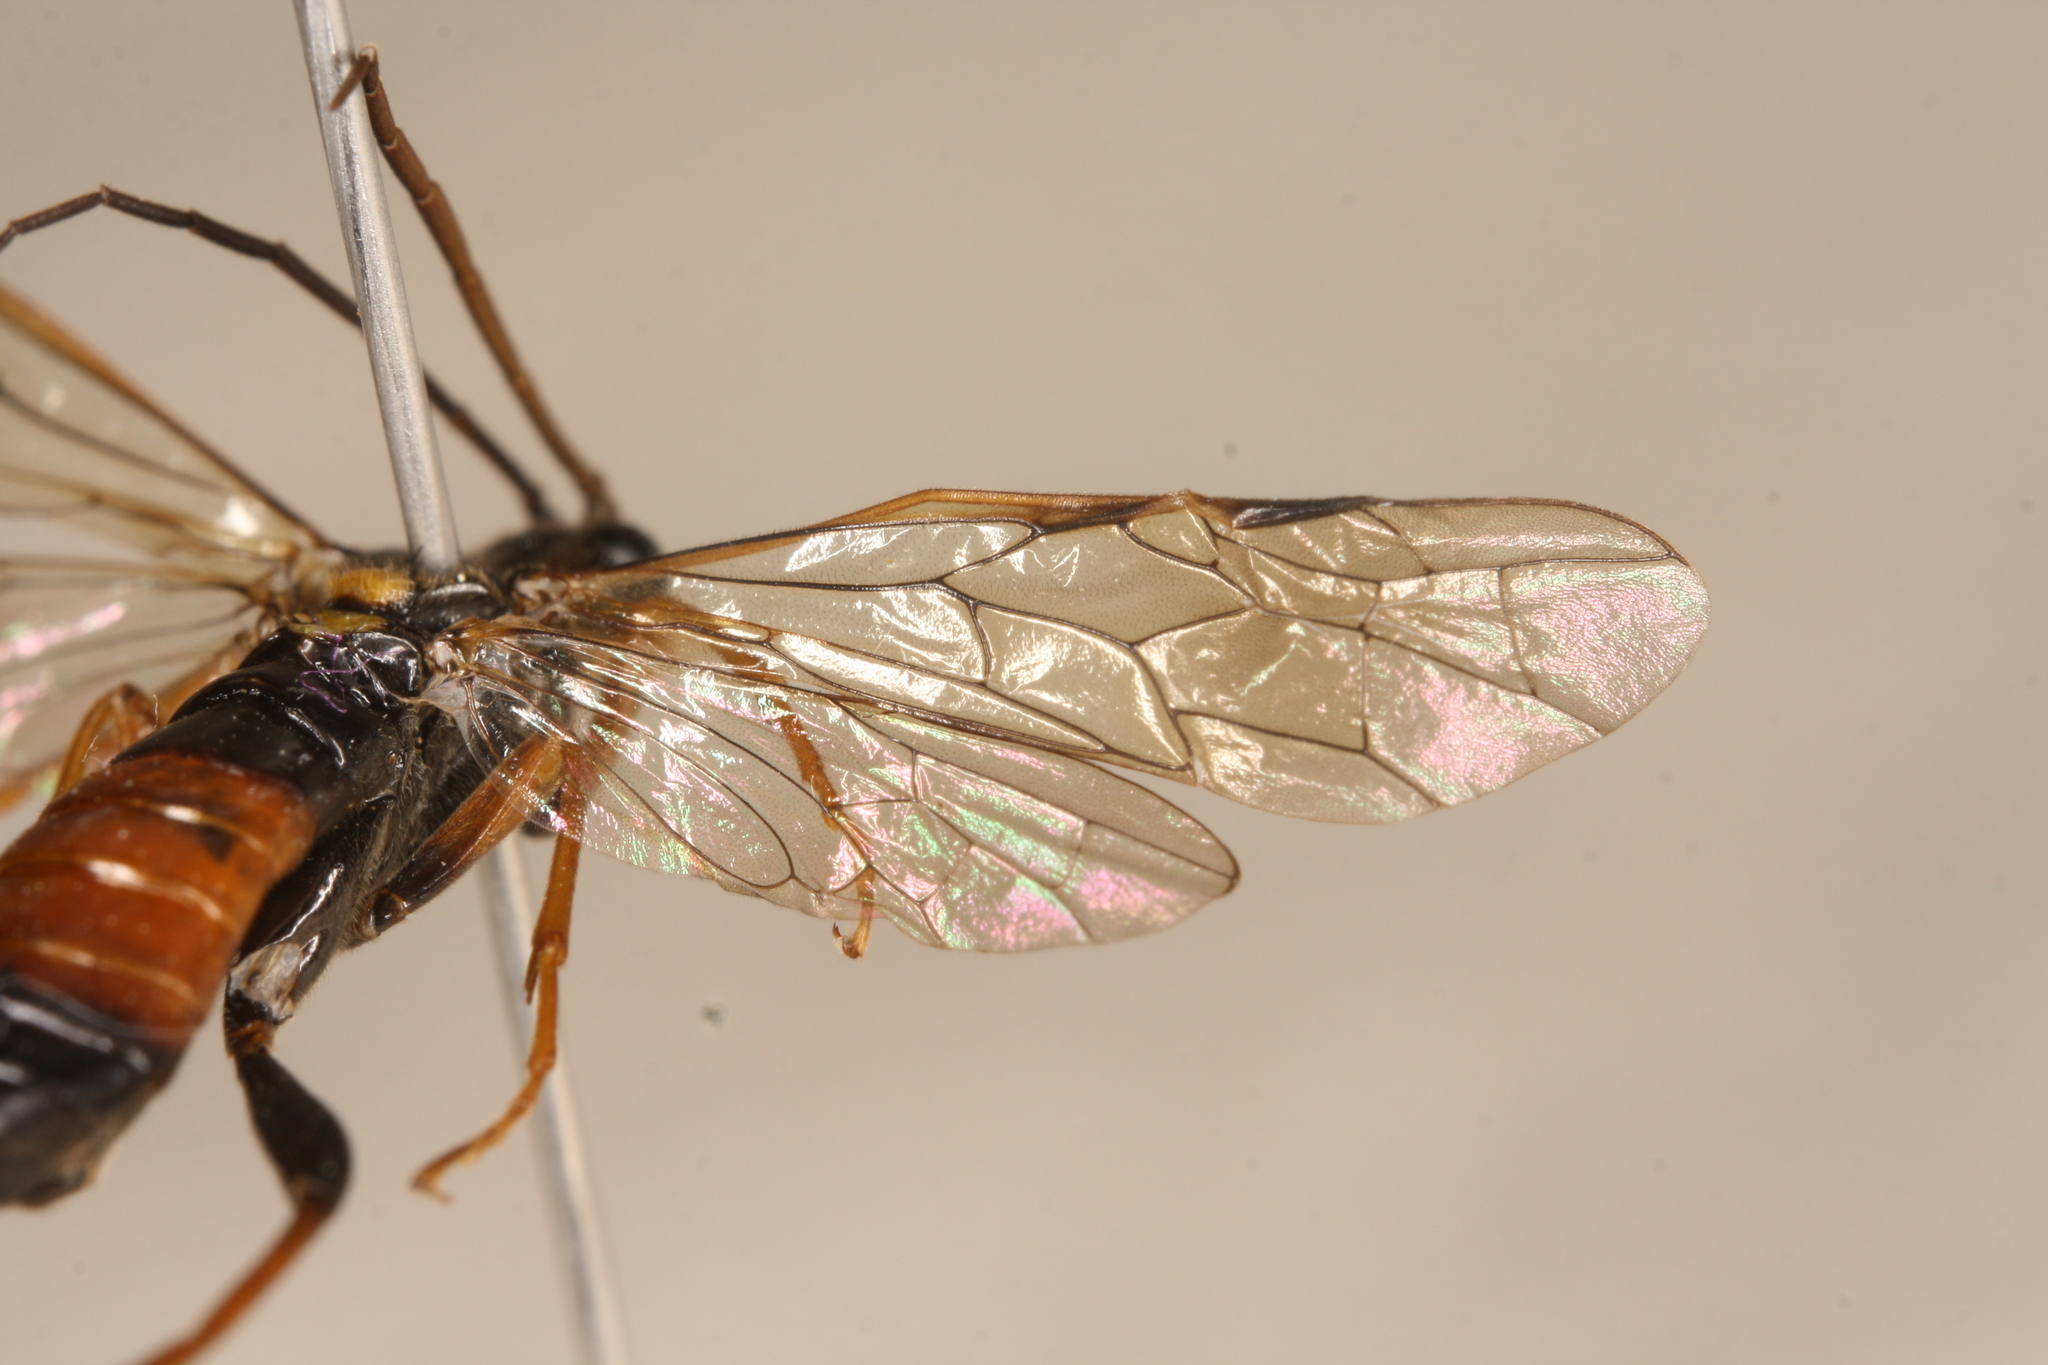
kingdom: Animalia
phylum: Arthropoda
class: Insecta
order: Hymenoptera
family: Tenthredinidae
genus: Tenthredopsis
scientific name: Tenthredopsis litterata
